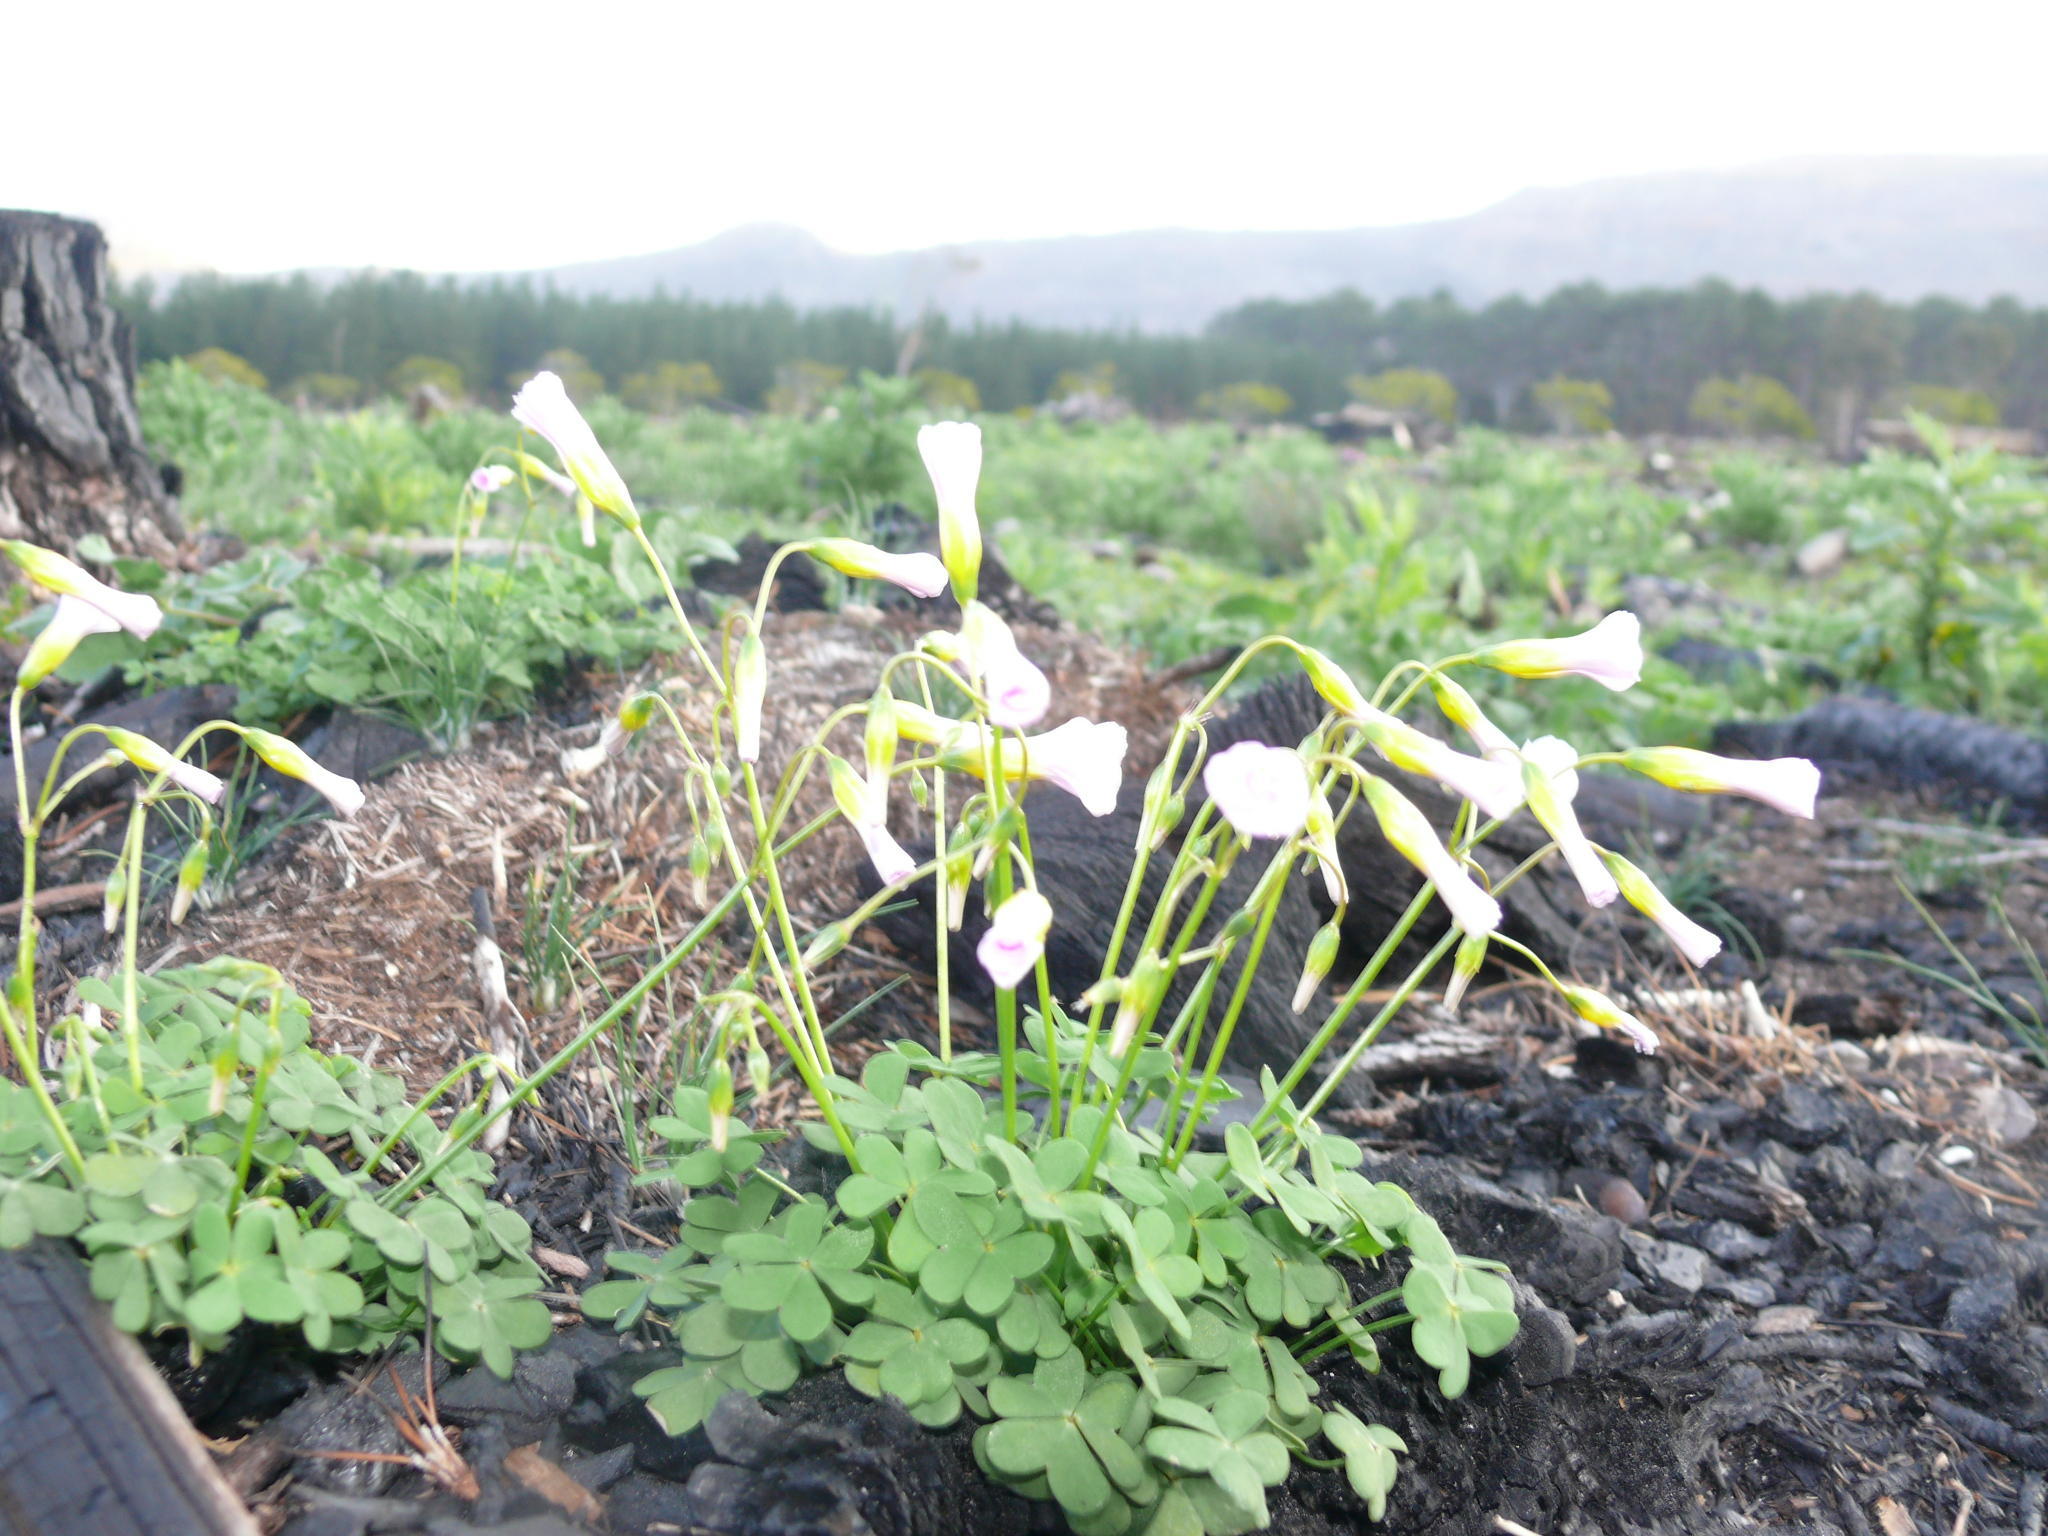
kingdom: Plantae
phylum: Tracheophyta
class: Magnoliopsida
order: Oxalidales
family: Oxalidaceae
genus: Oxalis
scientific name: Oxalis caprina
